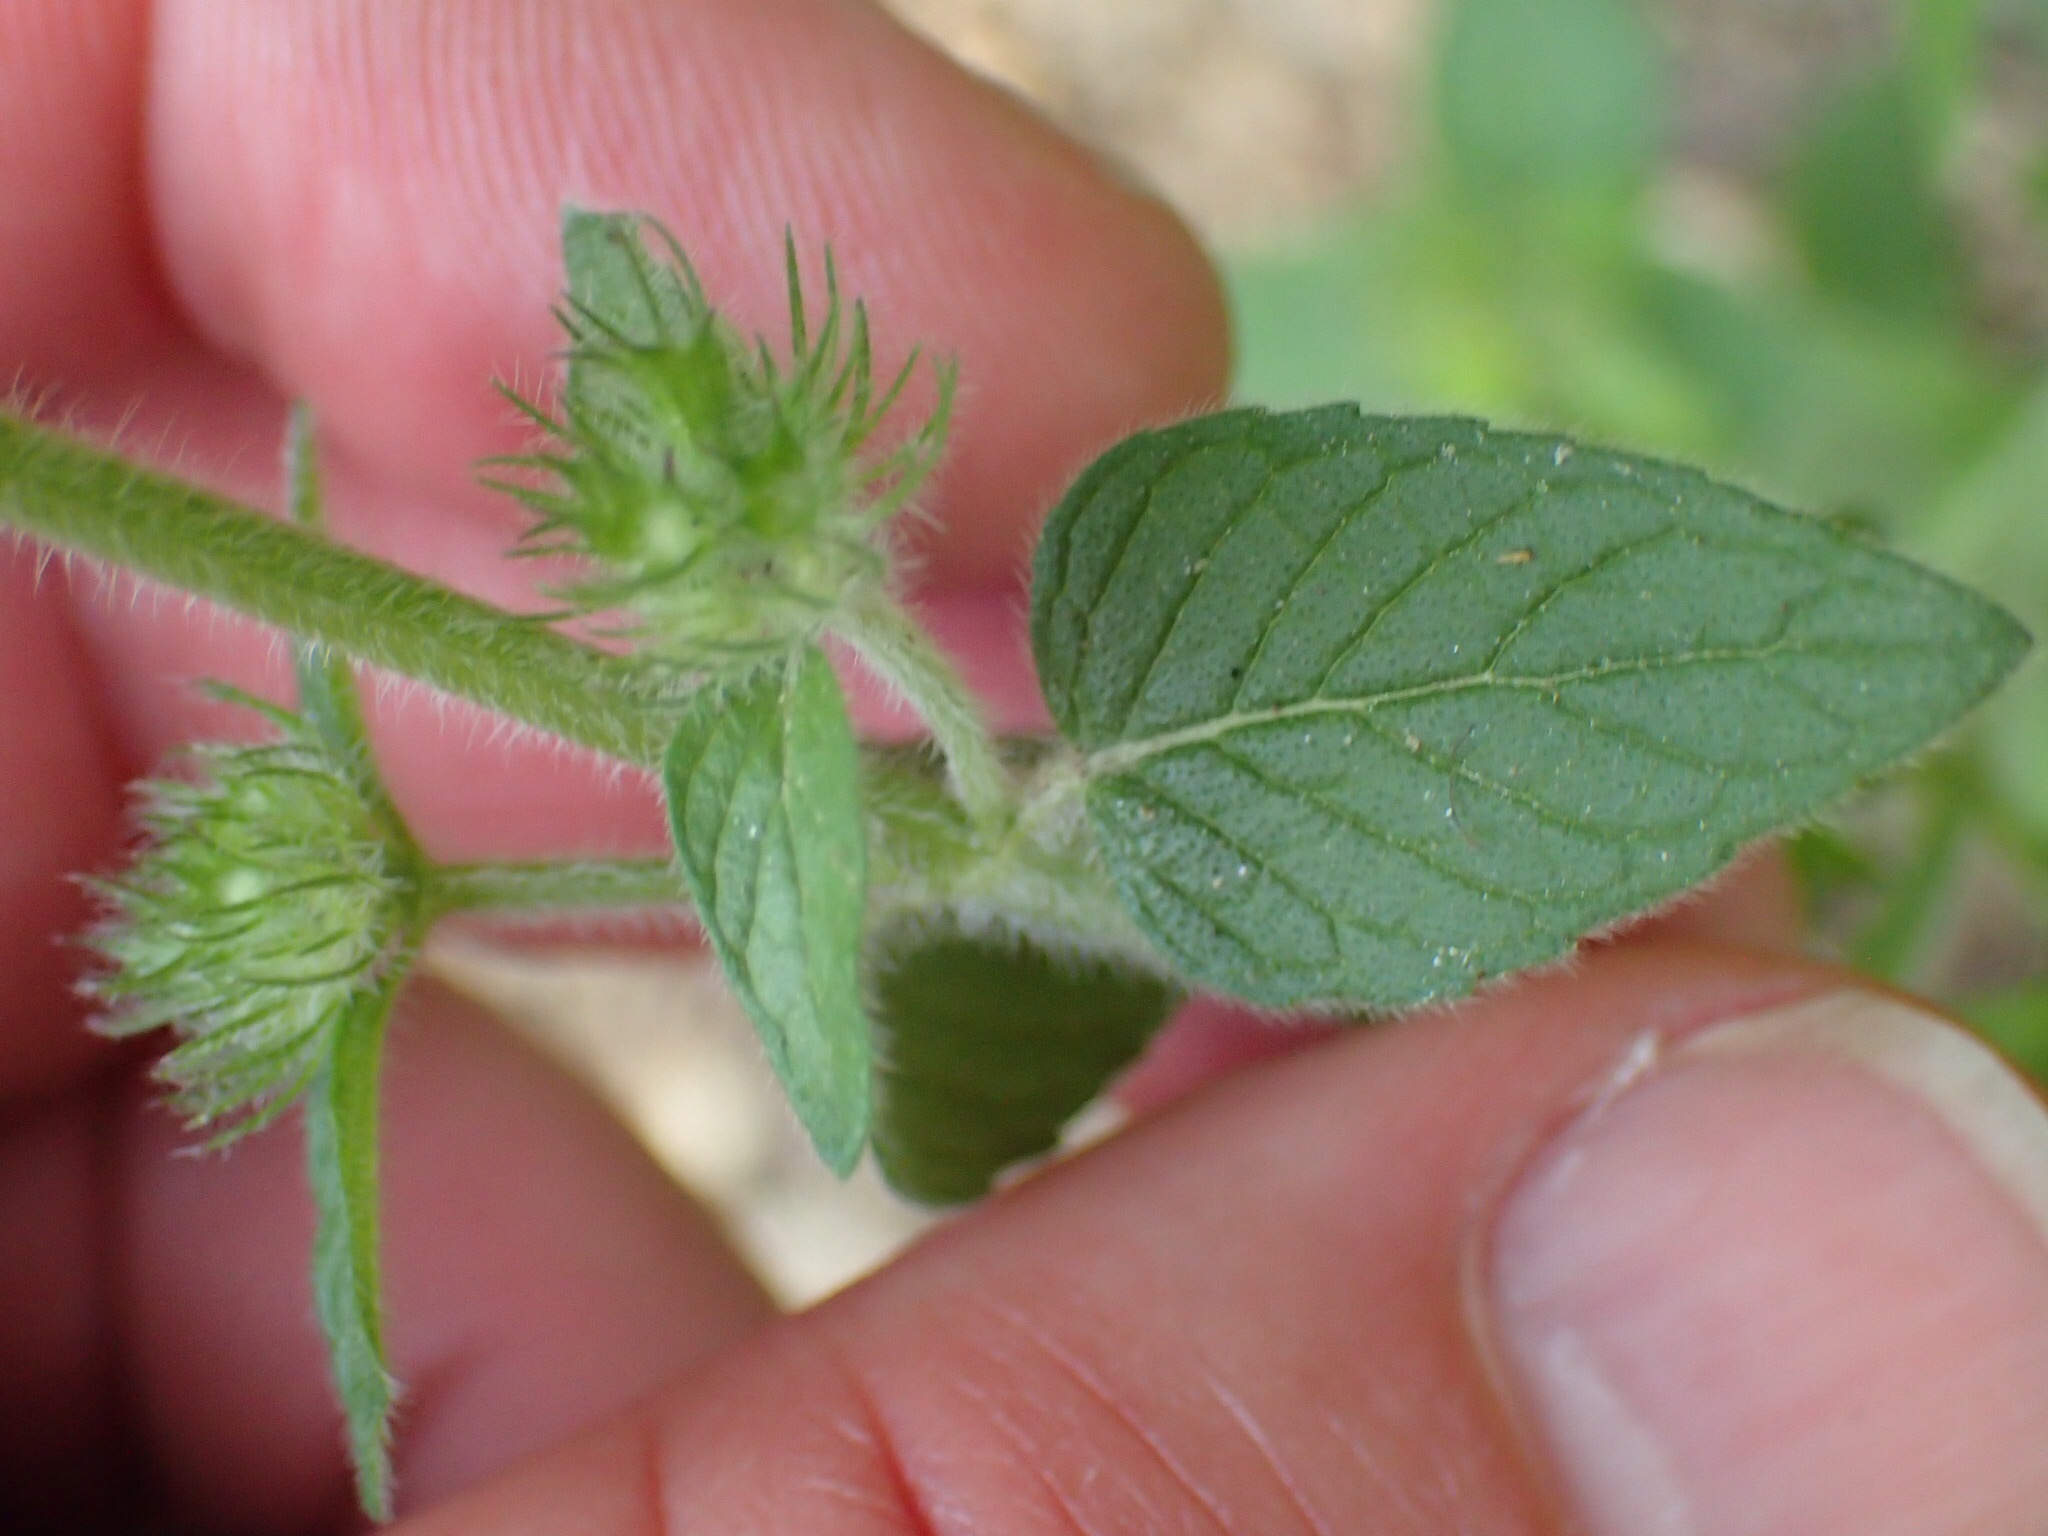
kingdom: Plantae
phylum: Tracheophyta
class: Magnoliopsida
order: Lamiales
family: Lamiaceae
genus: Clinopodium
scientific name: Clinopodium vulgare
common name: Wild basil
